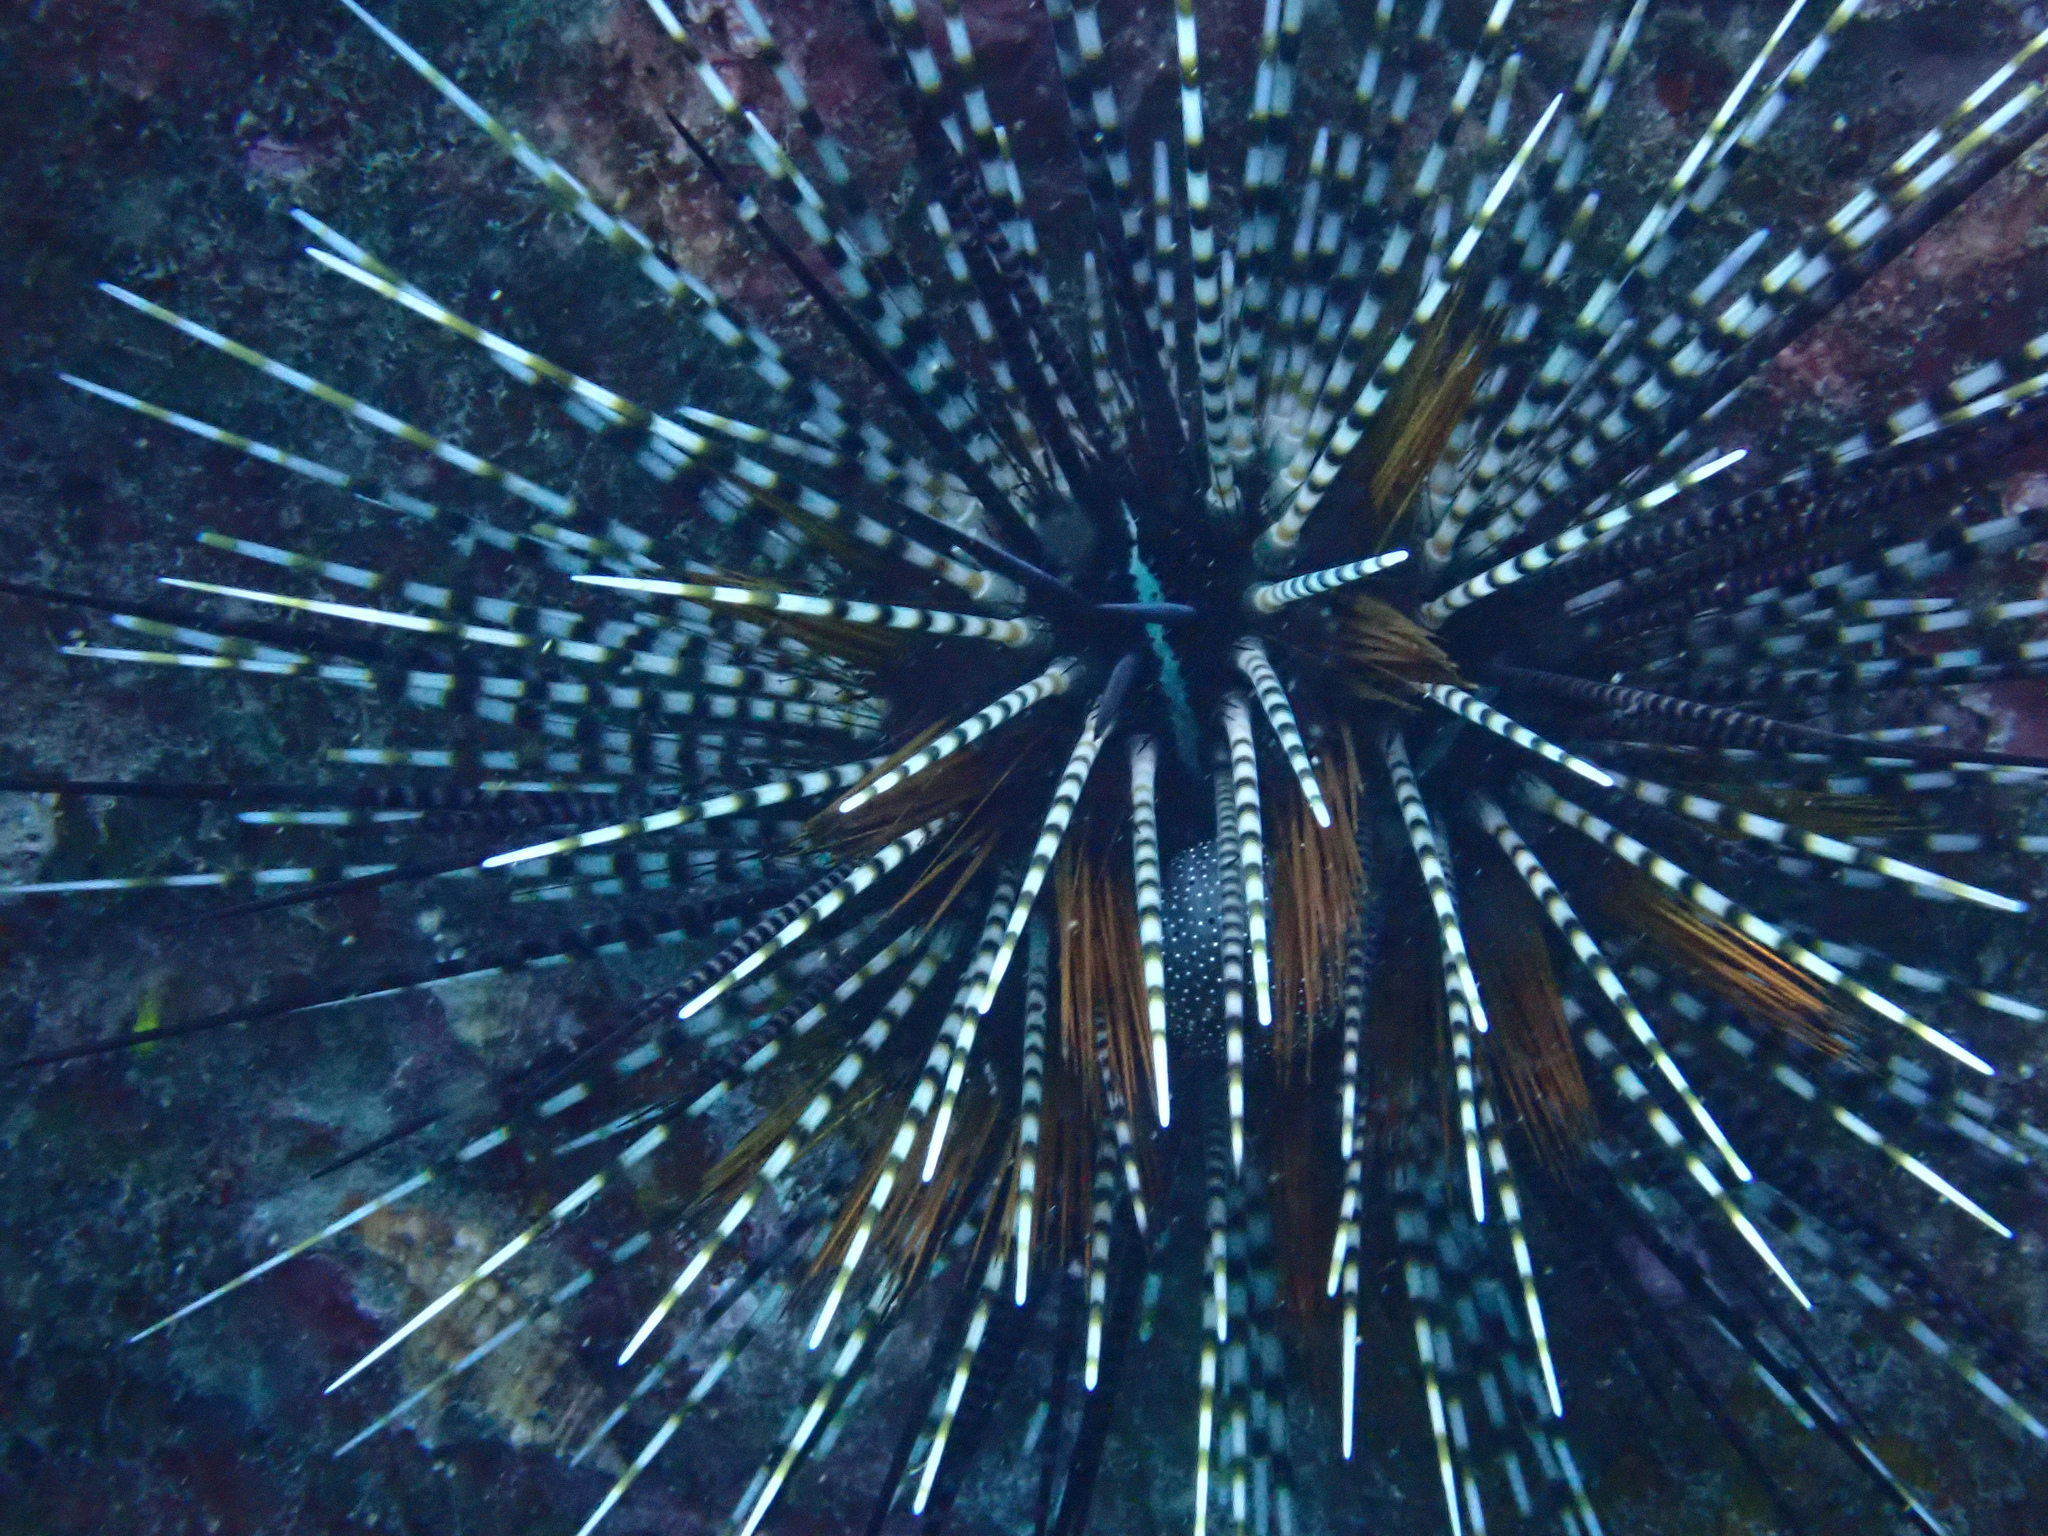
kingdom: Animalia
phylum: Echinodermata
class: Echinoidea
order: Diadematoida
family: Diadematidae
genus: Echinothrix
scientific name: Echinothrix calamaris
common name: Banded sea urchin
